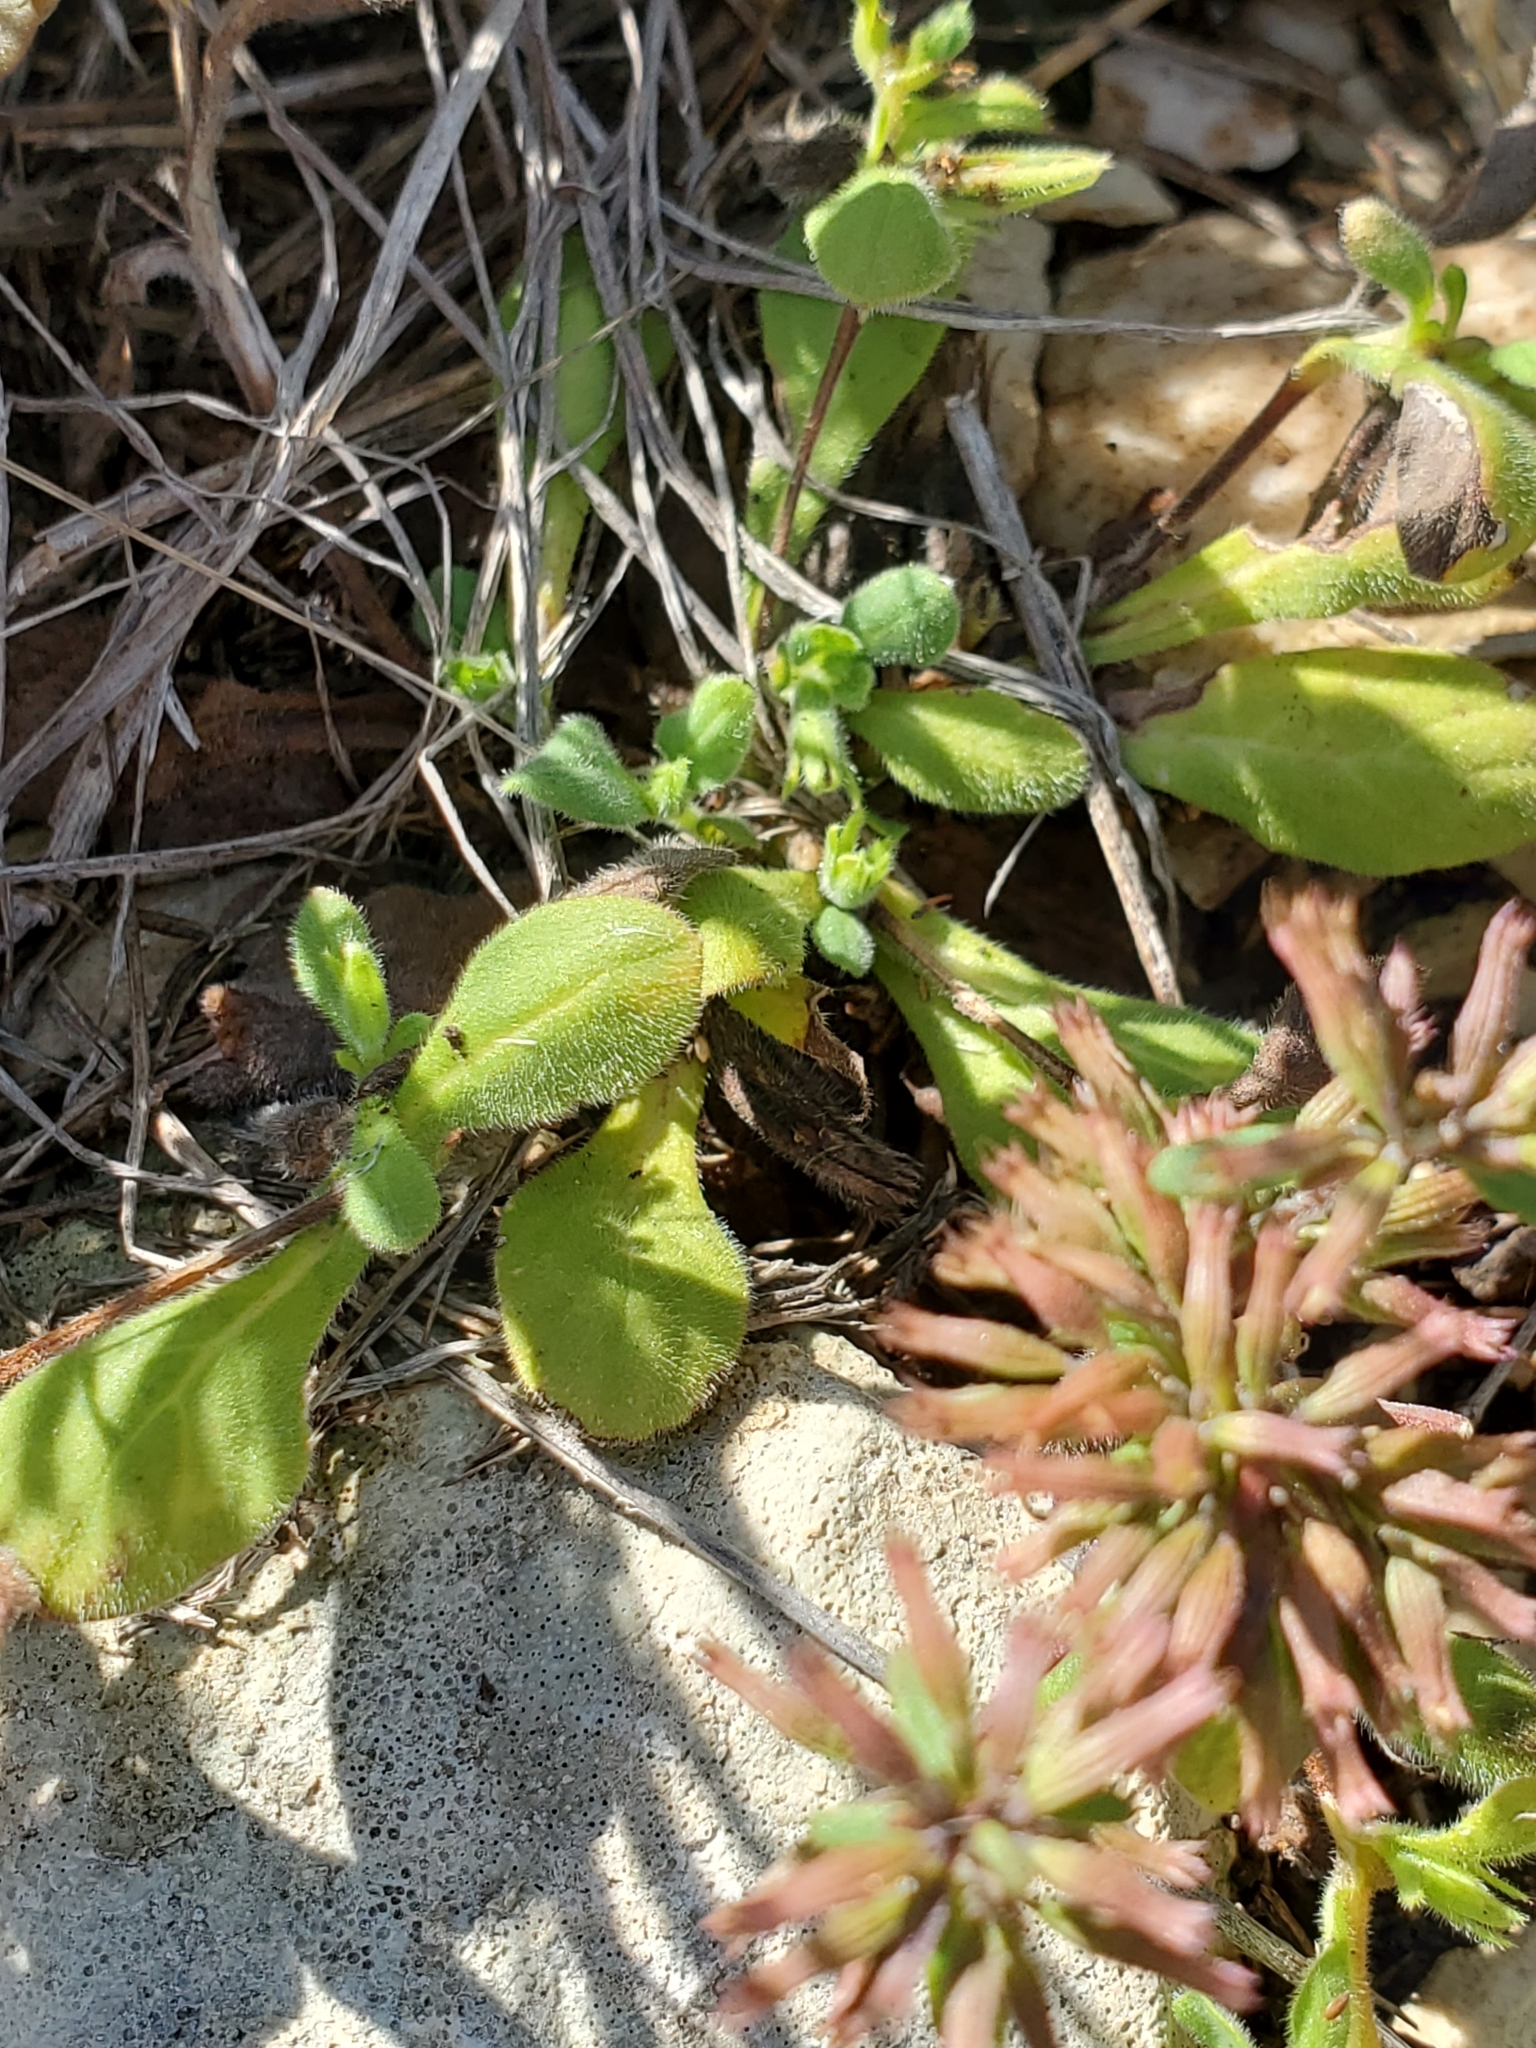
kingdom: Plantae
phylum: Tracheophyta
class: Magnoliopsida
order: Boraginales
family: Namaceae
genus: Nama
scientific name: Nama jamaicensis
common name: Jamaicanweed
